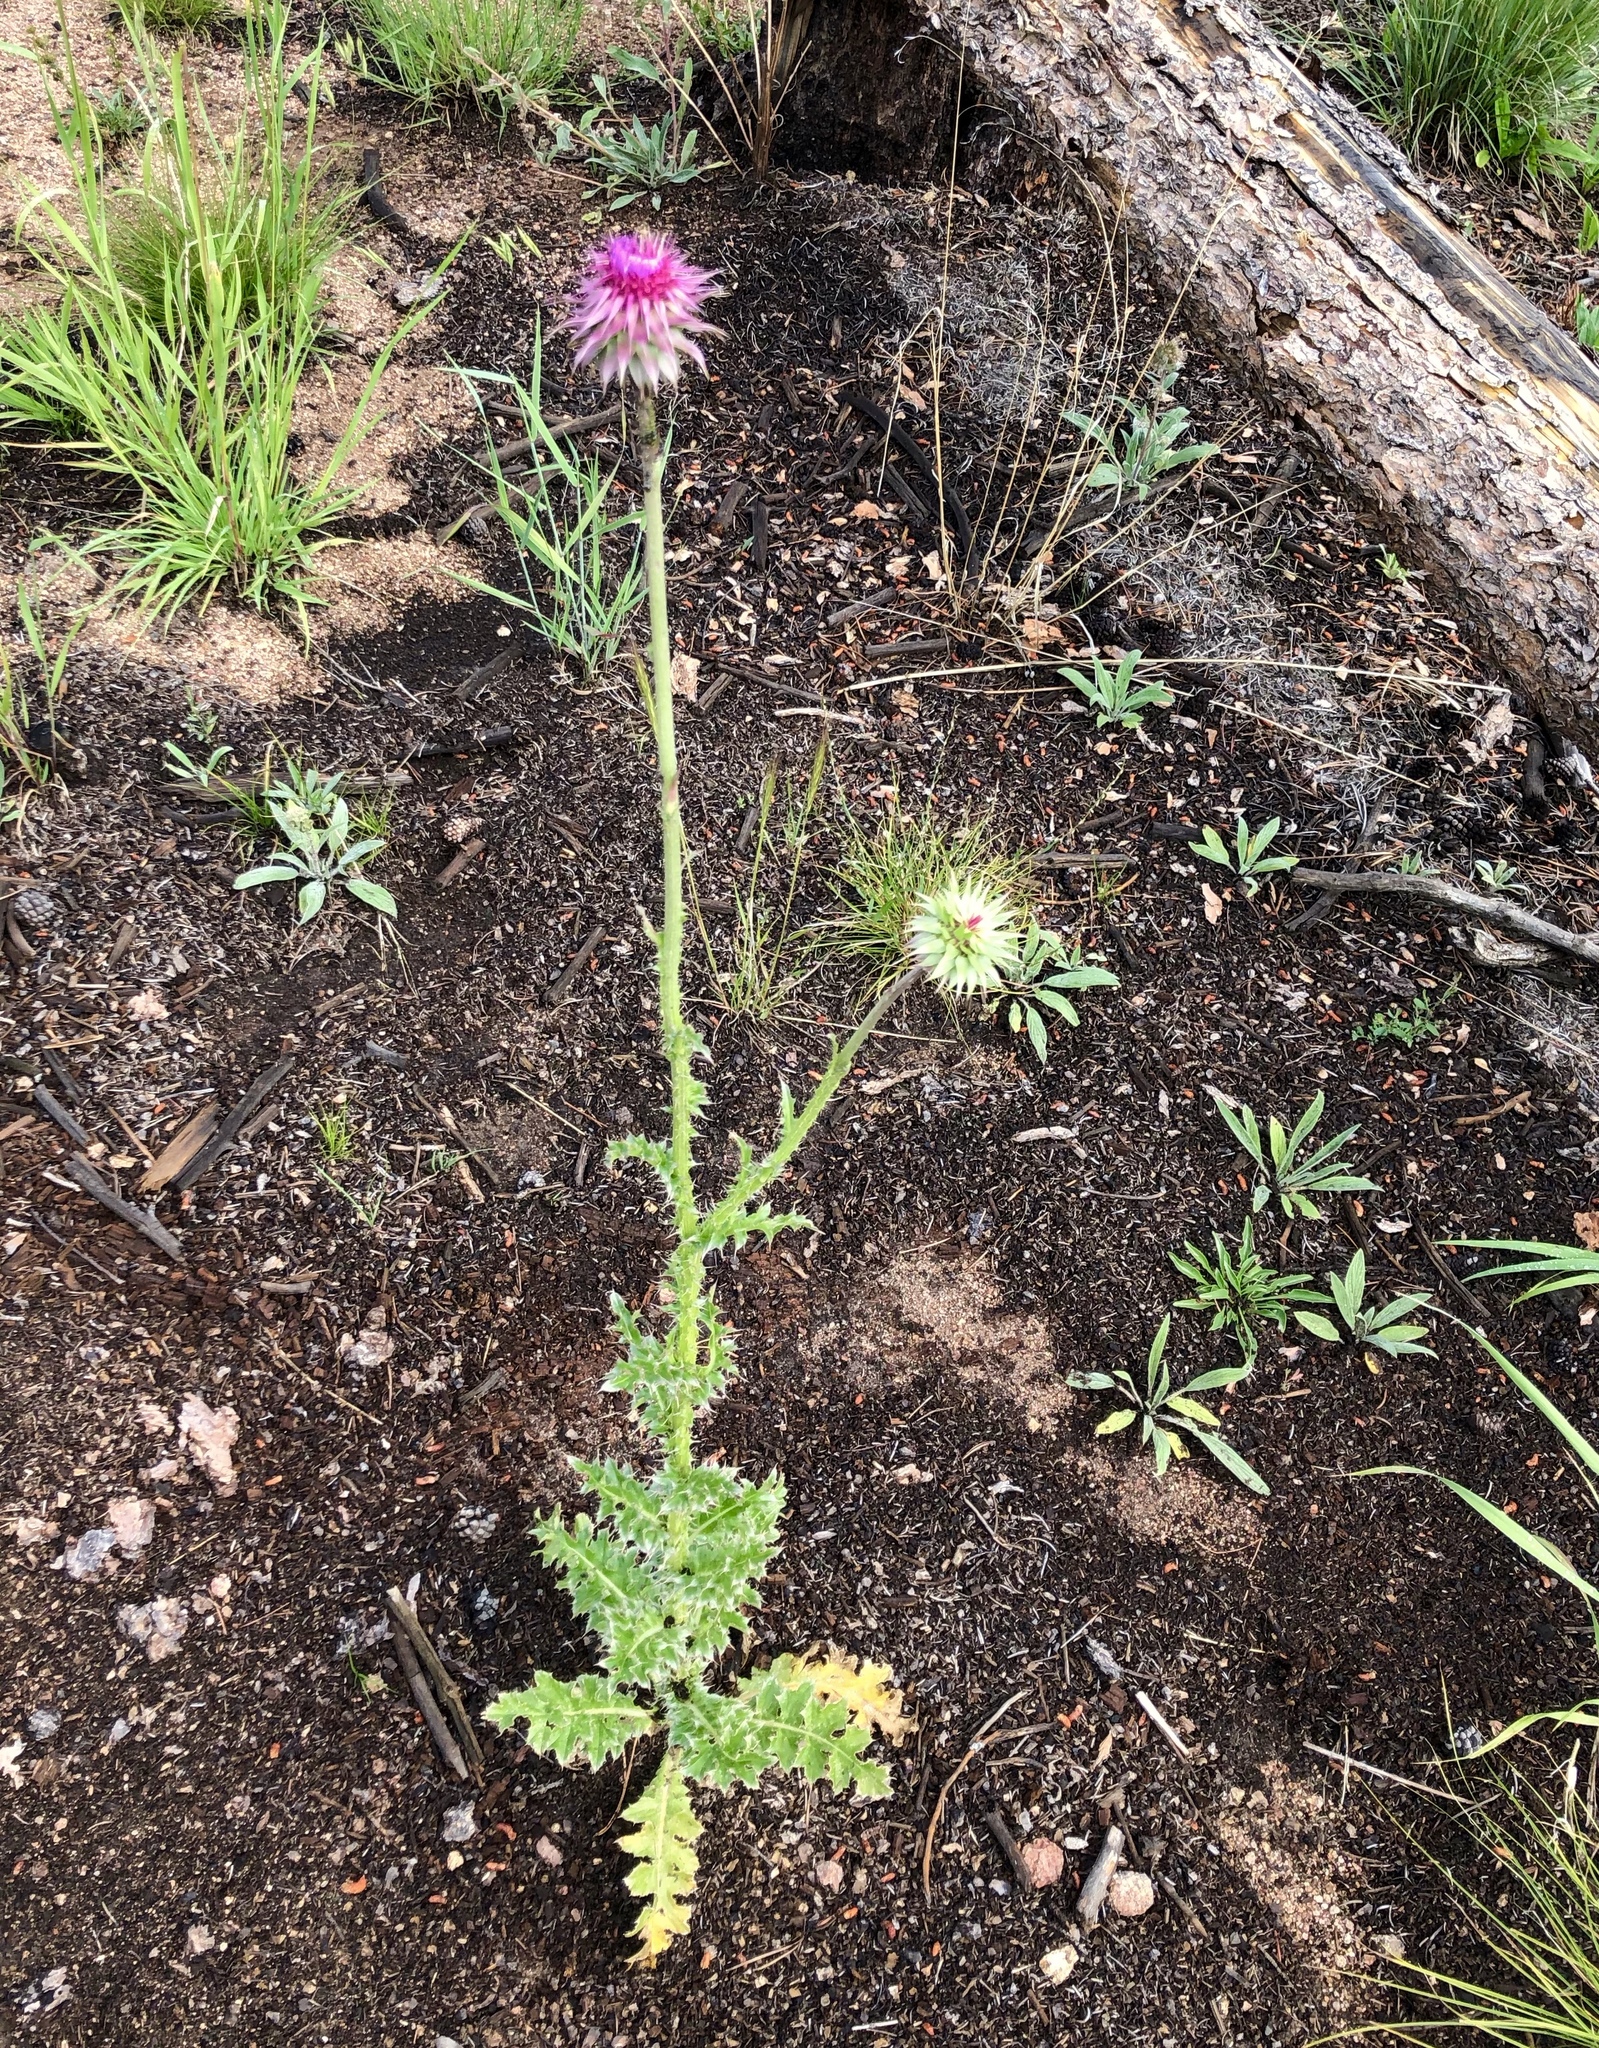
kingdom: Plantae
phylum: Tracheophyta
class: Magnoliopsida
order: Asterales
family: Asteraceae
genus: Carduus
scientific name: Carduus nutans
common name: Musk thistle
